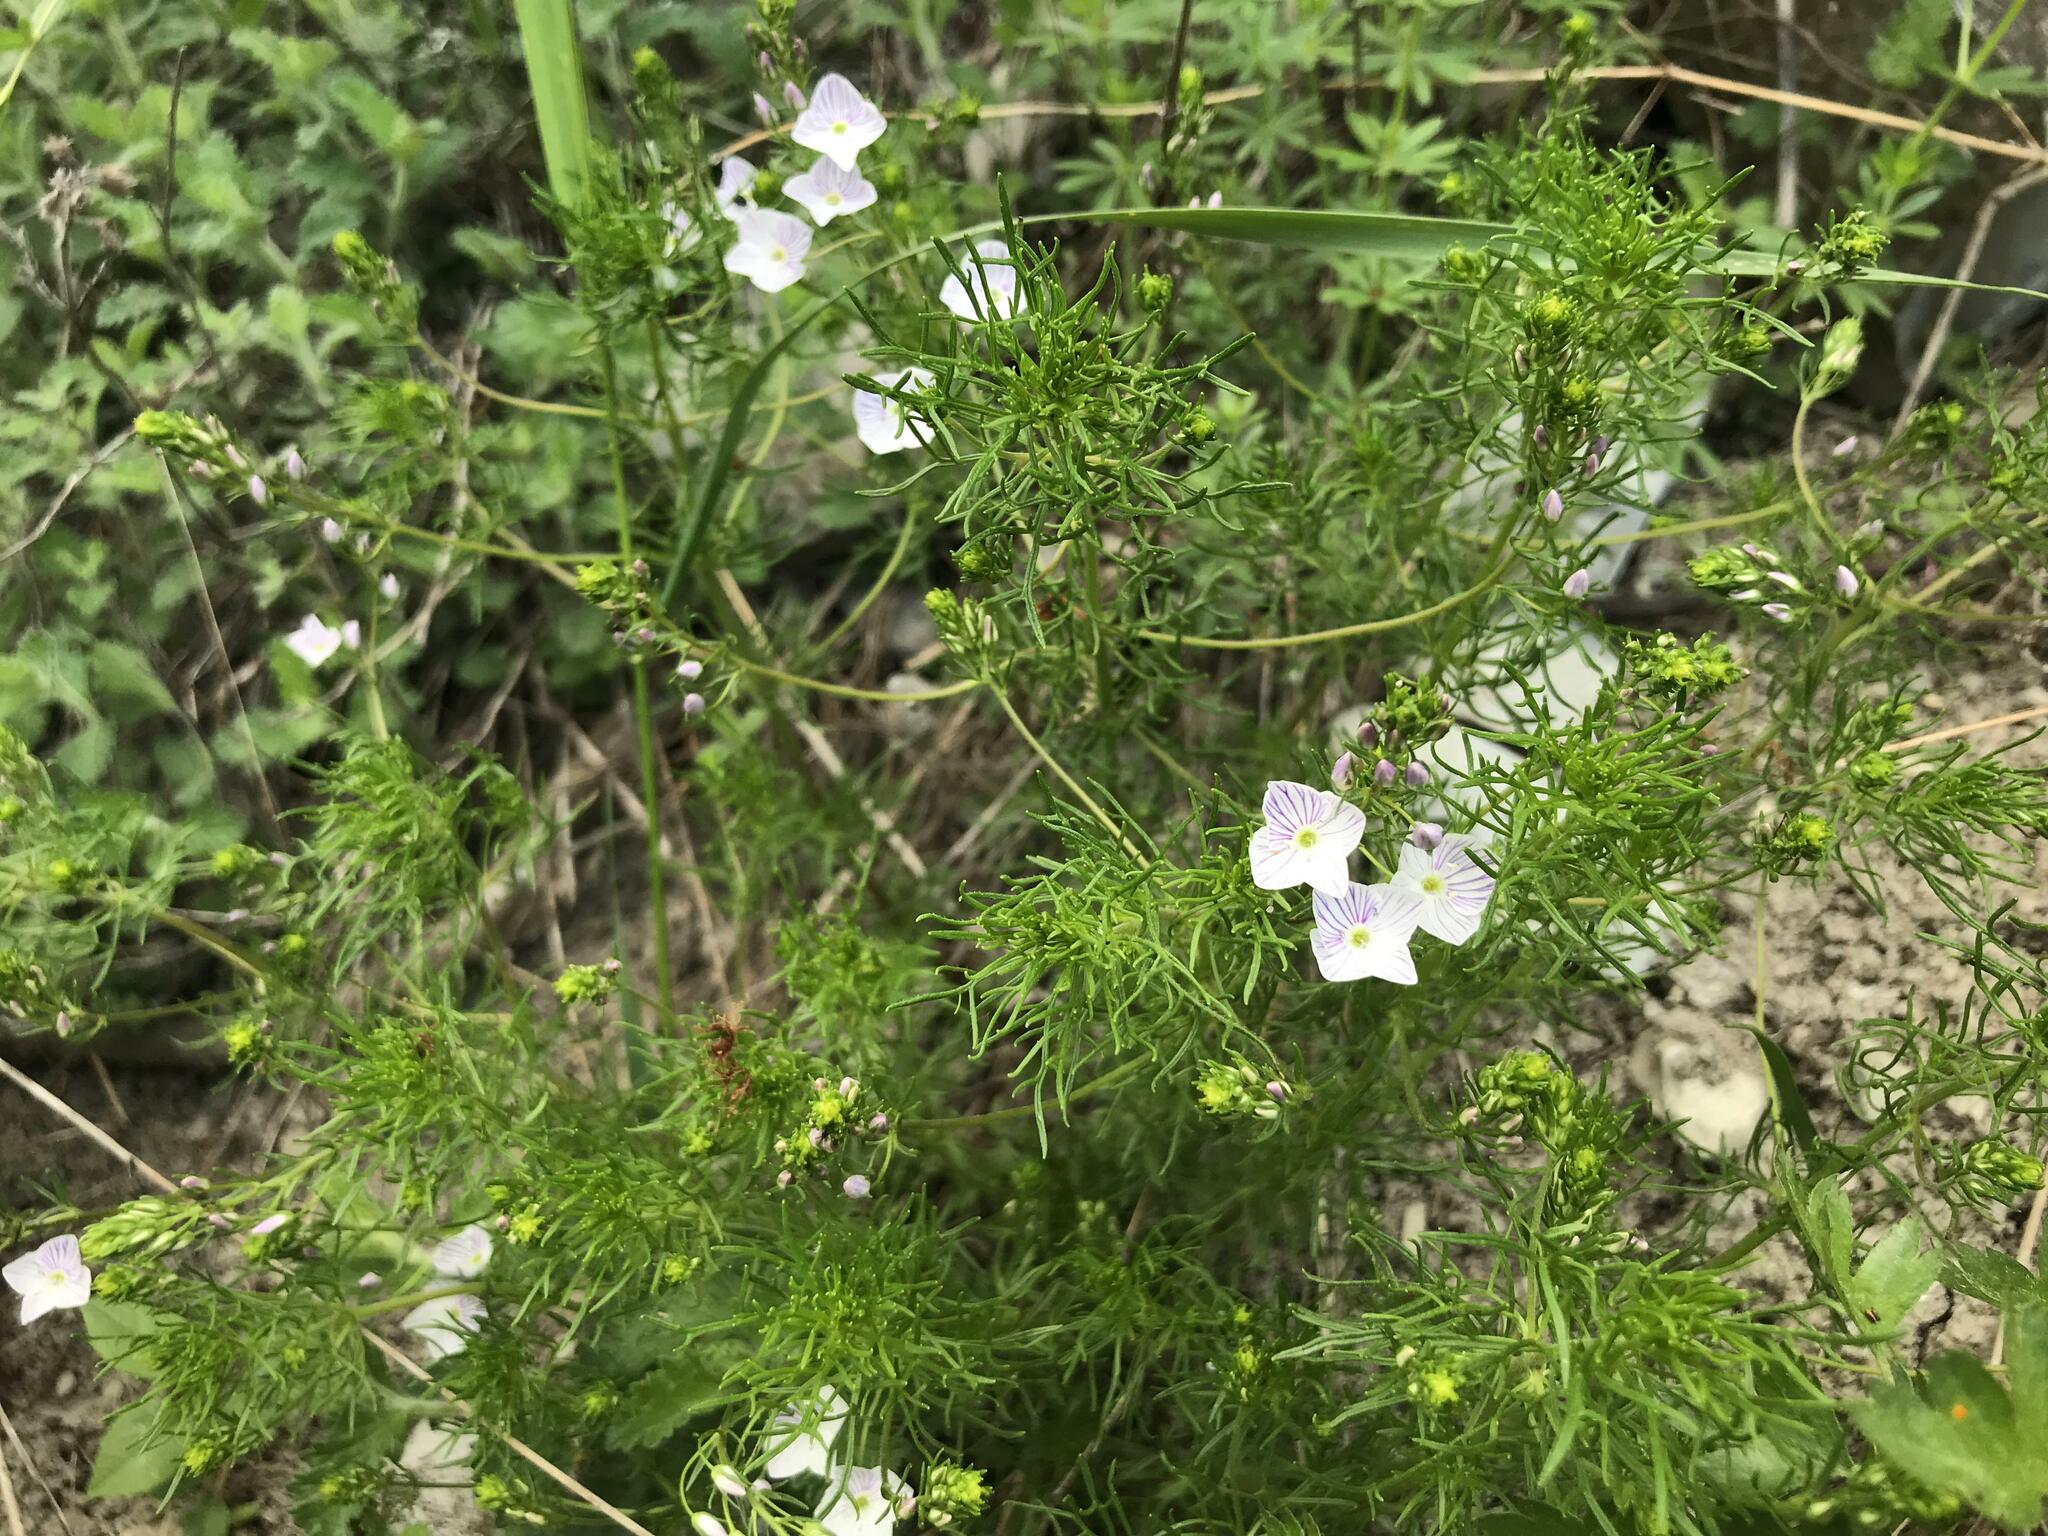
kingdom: Plantae
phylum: Tracheophyta
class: Magnoliopsida
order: Lamiales
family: Plantaginaceae
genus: Veronica
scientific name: Veronica filifolia
